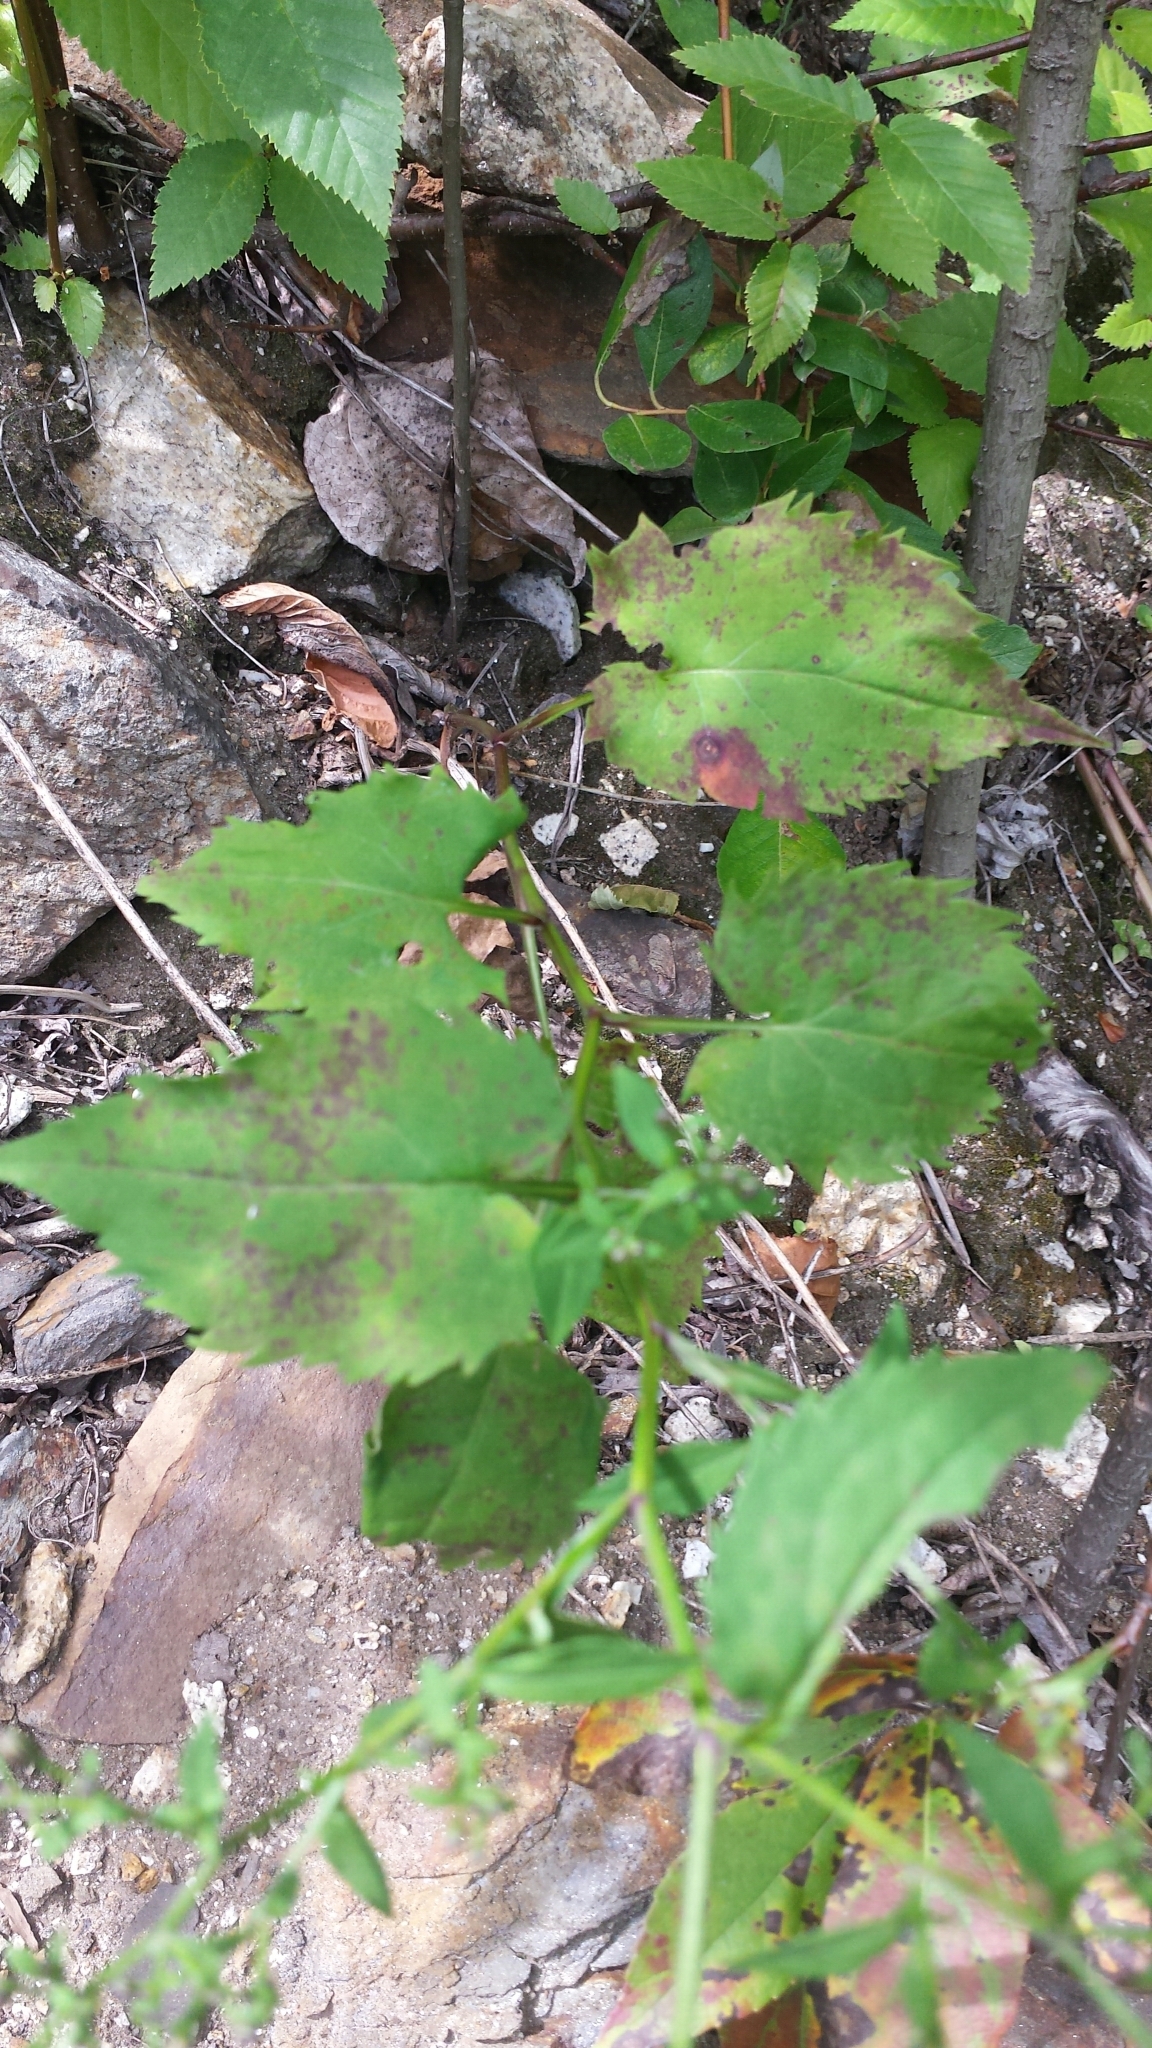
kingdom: Plantae
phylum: Tracheophyta
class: Magnoliopsida
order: Asterales
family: Asteraceae
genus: Symphyotrichum
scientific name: Symphyotrichum cordifolium
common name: Beeweed
